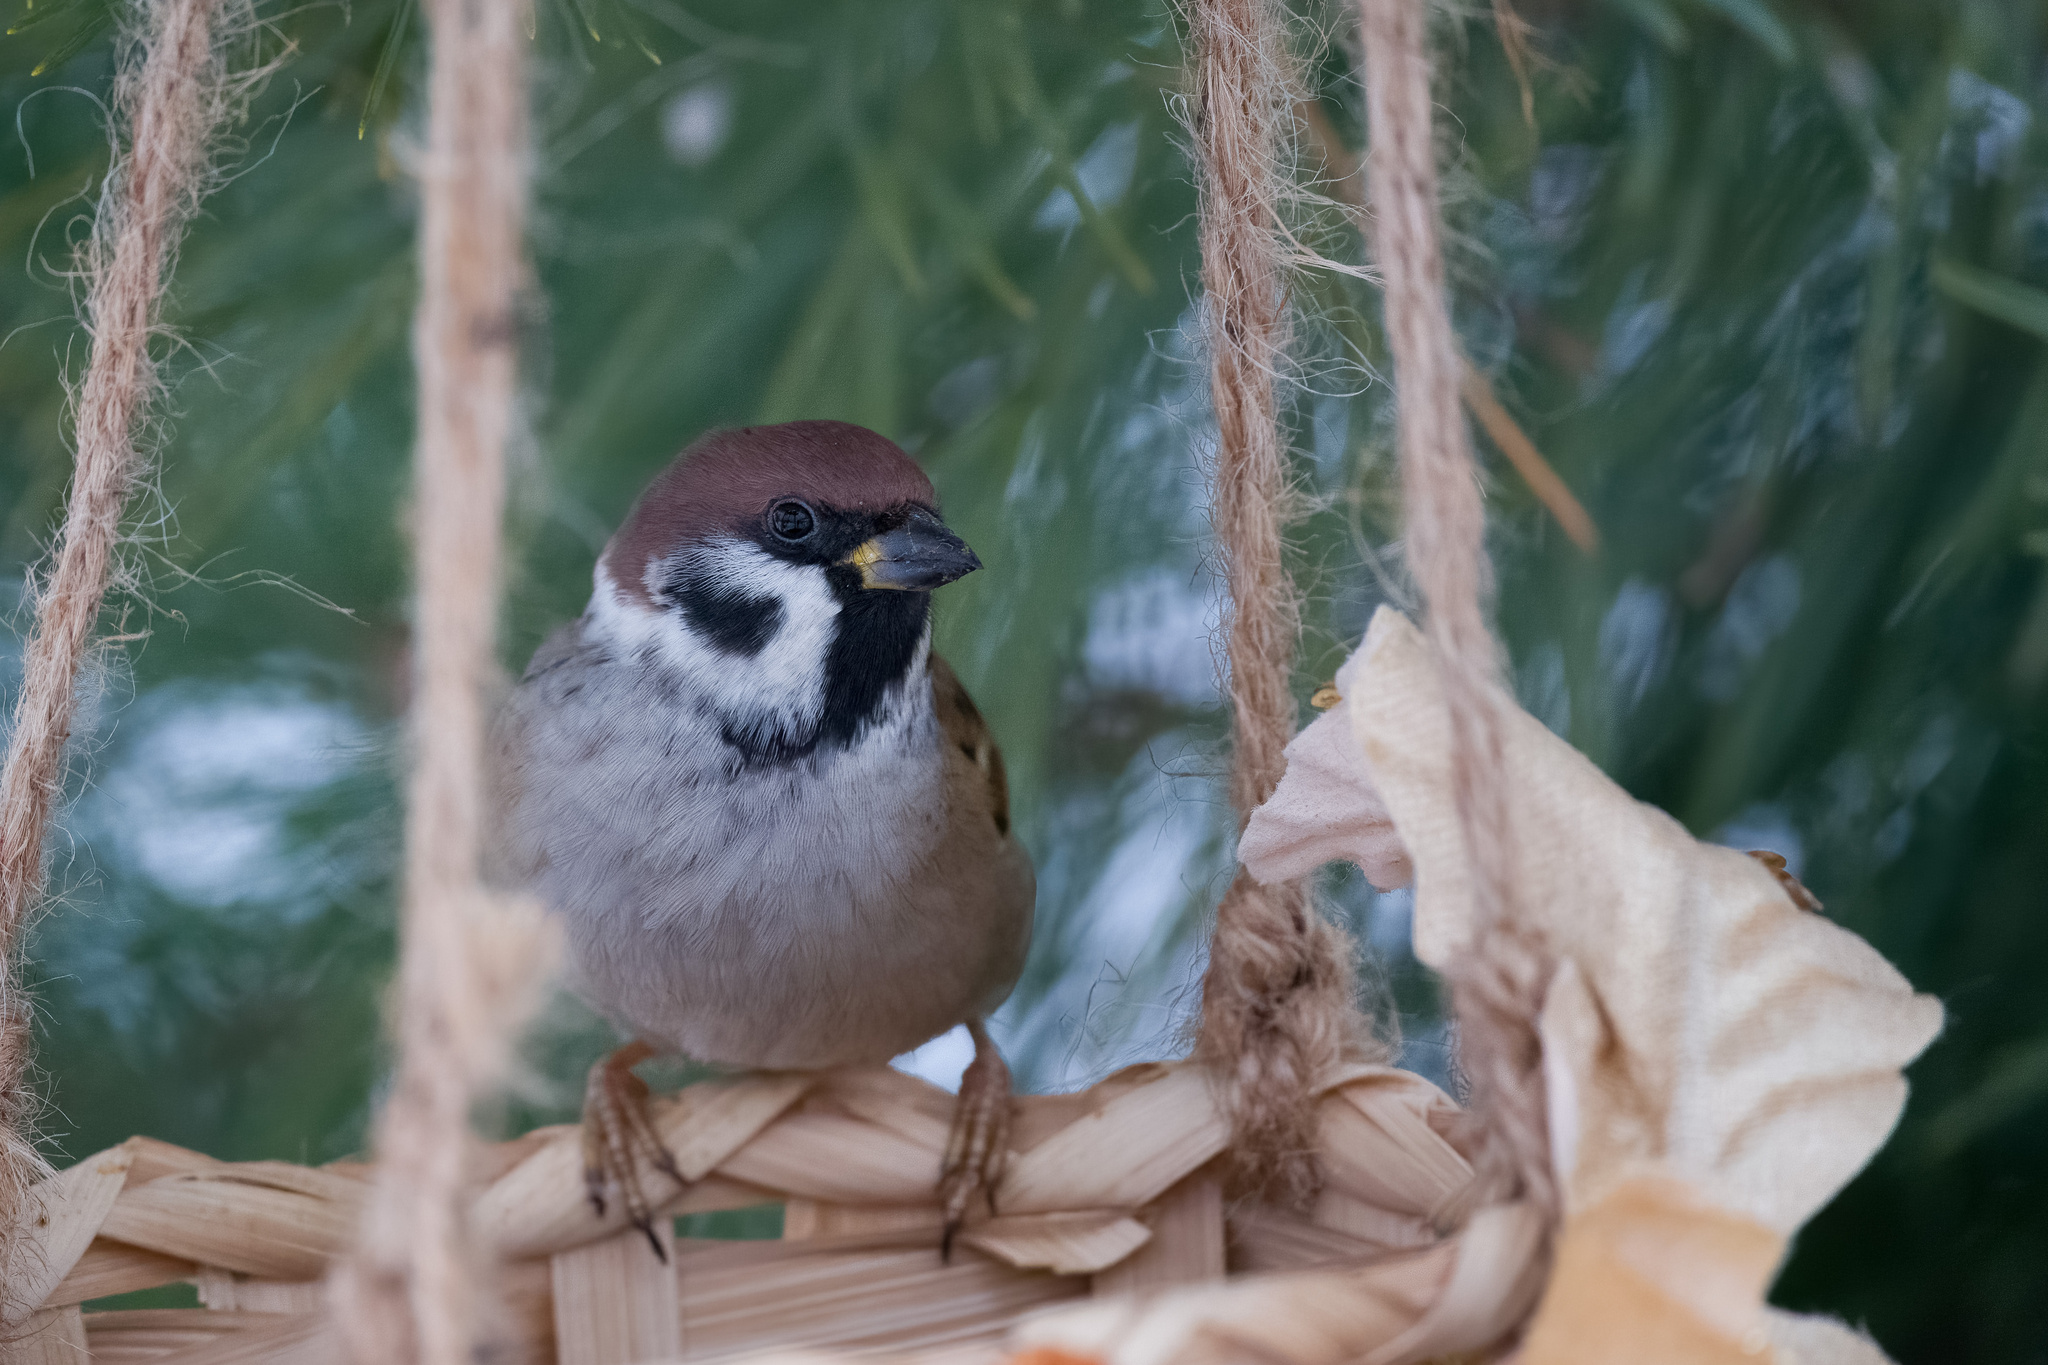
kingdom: Animalia
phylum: Chordata
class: Aves
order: Passeriformes
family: Passeridae
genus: Passer
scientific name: Passer montanus
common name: Eurasian tree sparrow
